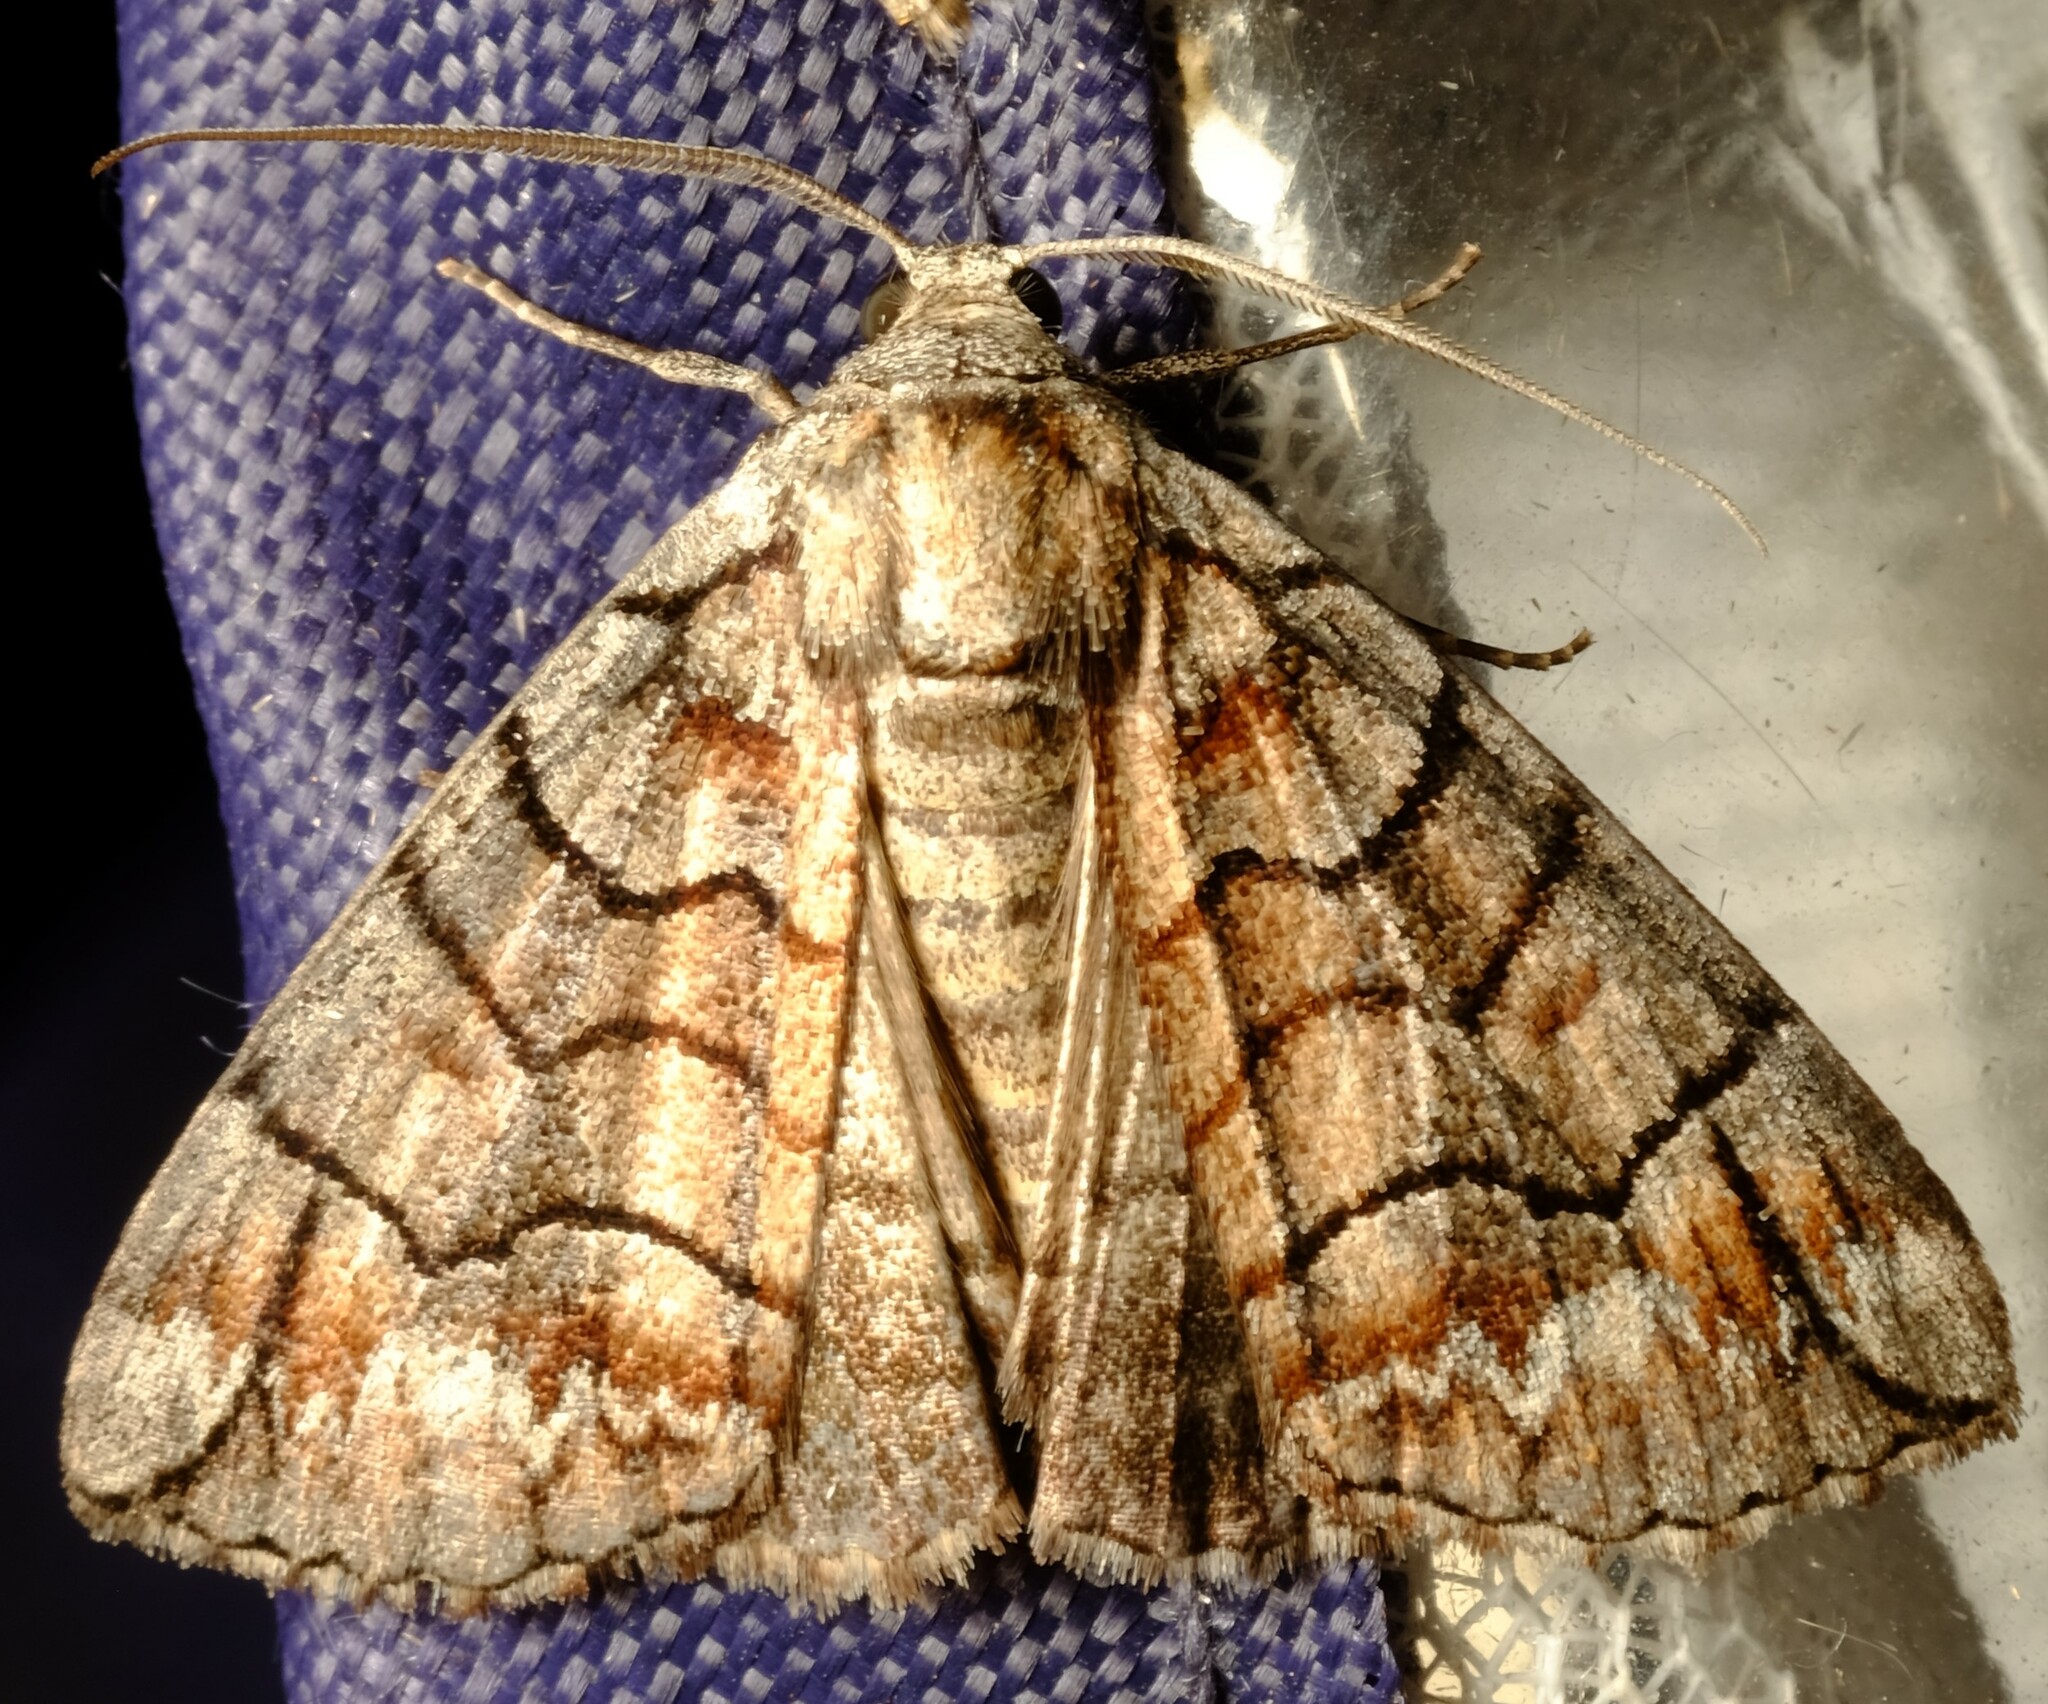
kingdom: Animalia
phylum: Arthropoda
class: Insecta
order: Lepidoptera
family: Geometridae
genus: Dysbatus
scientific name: Dysbatus stenodesma
